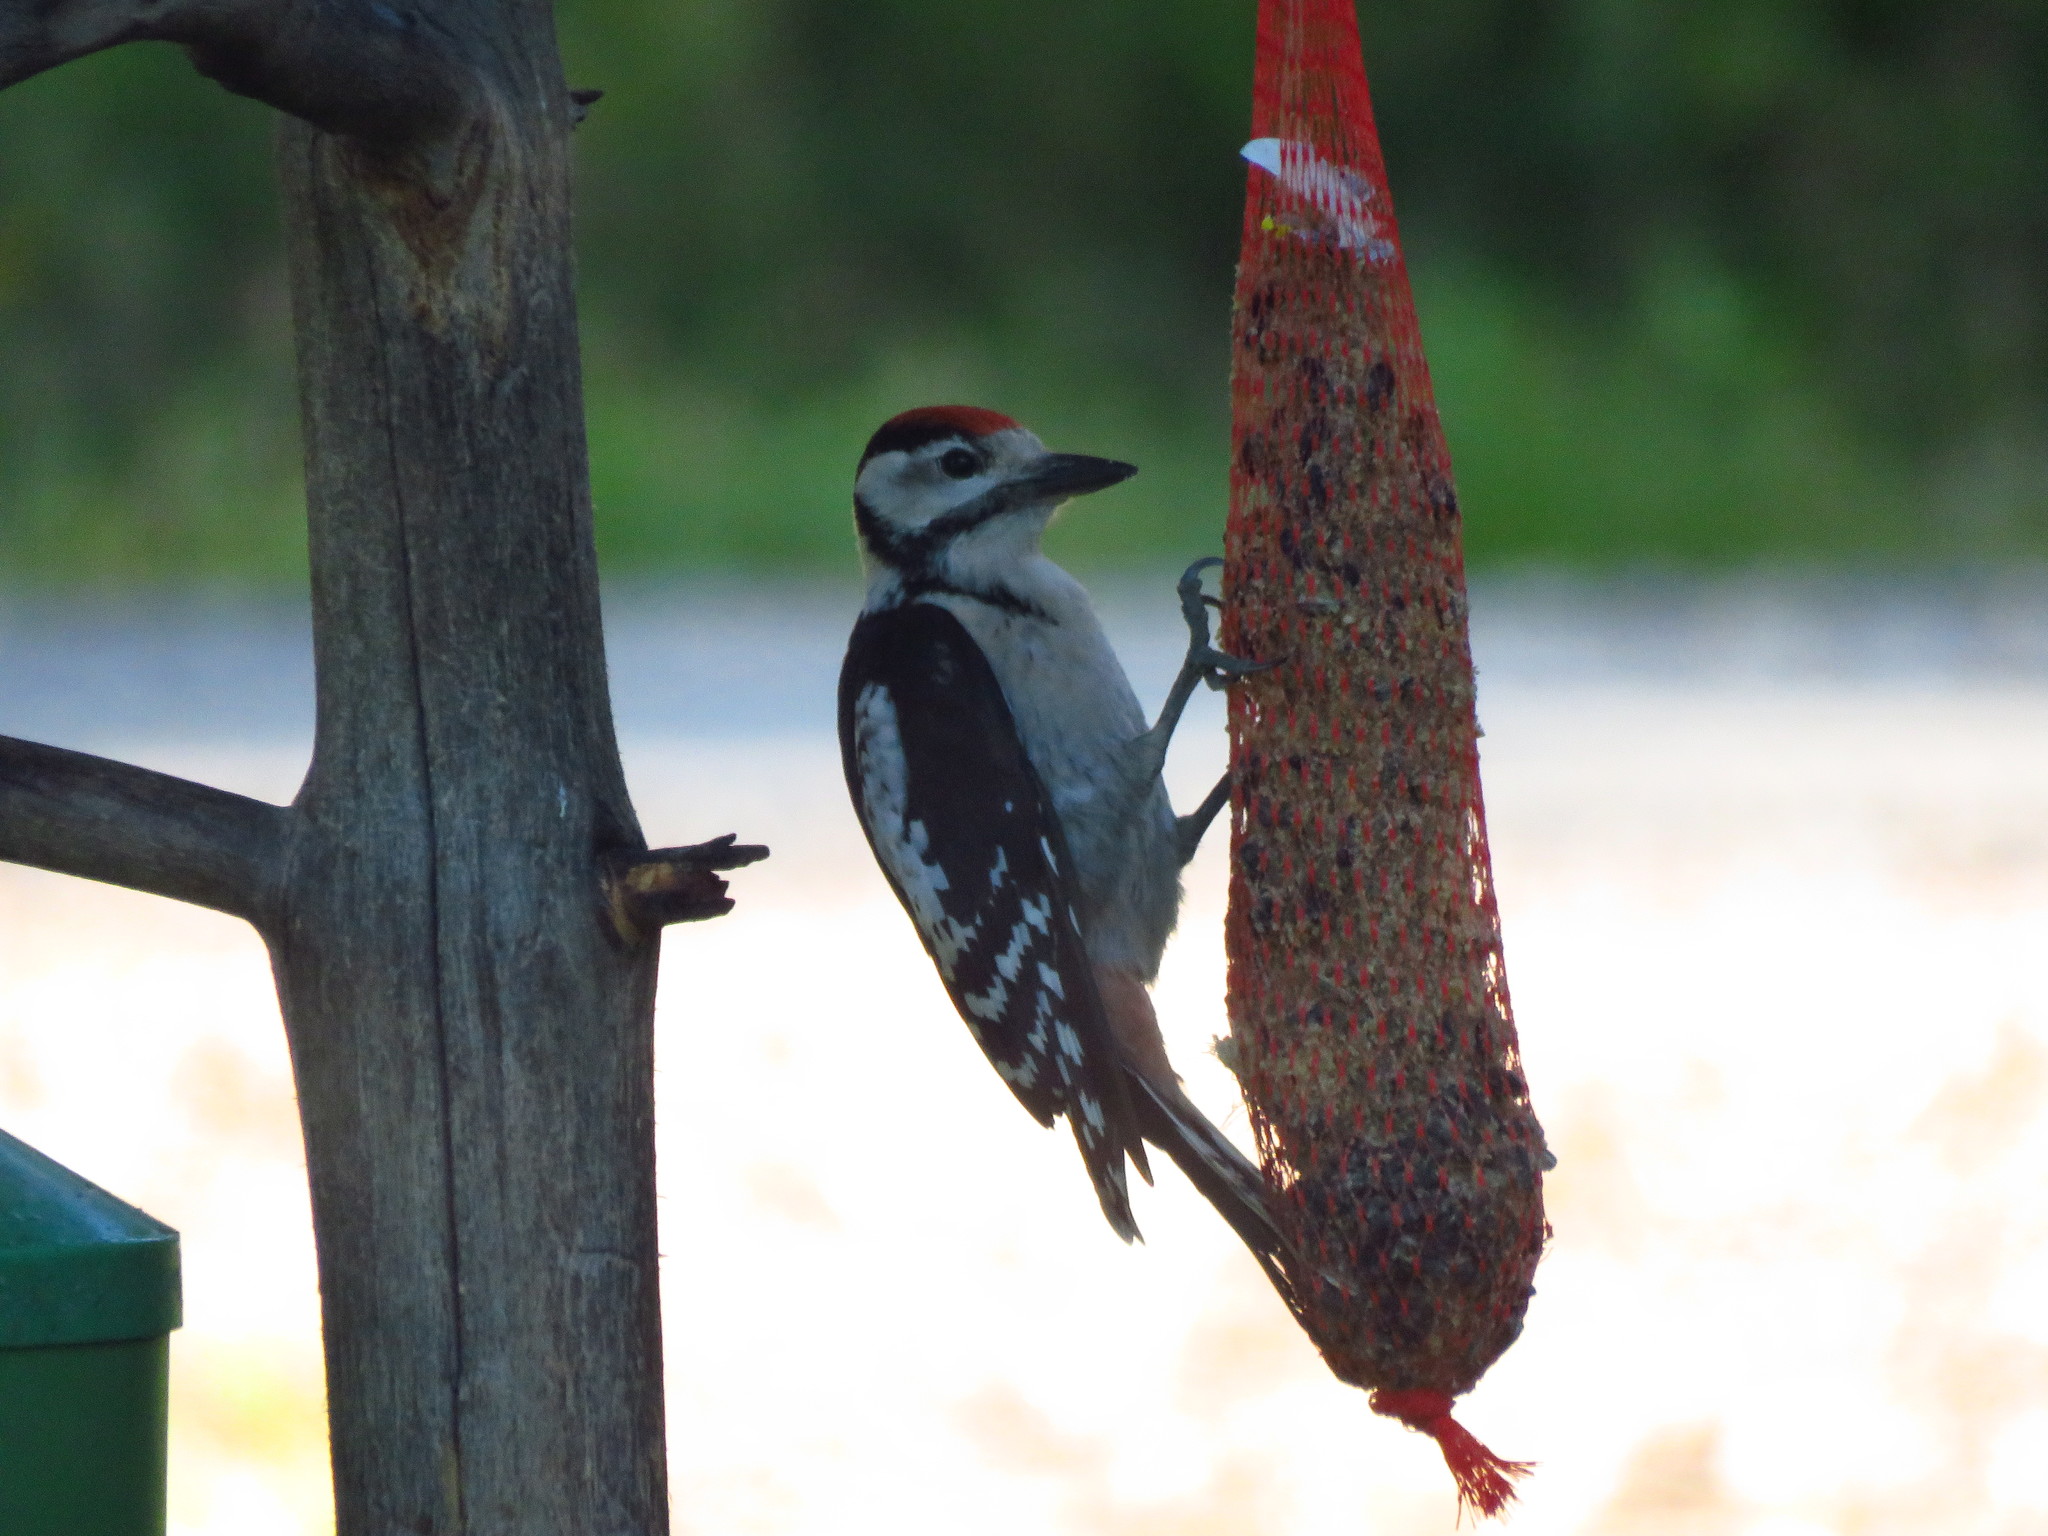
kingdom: Animalia
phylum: Chordata
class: Aves
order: Piciformes
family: Picidae
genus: Dendrocopos
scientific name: Dendrocopos major
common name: Great spotted woodpecker
